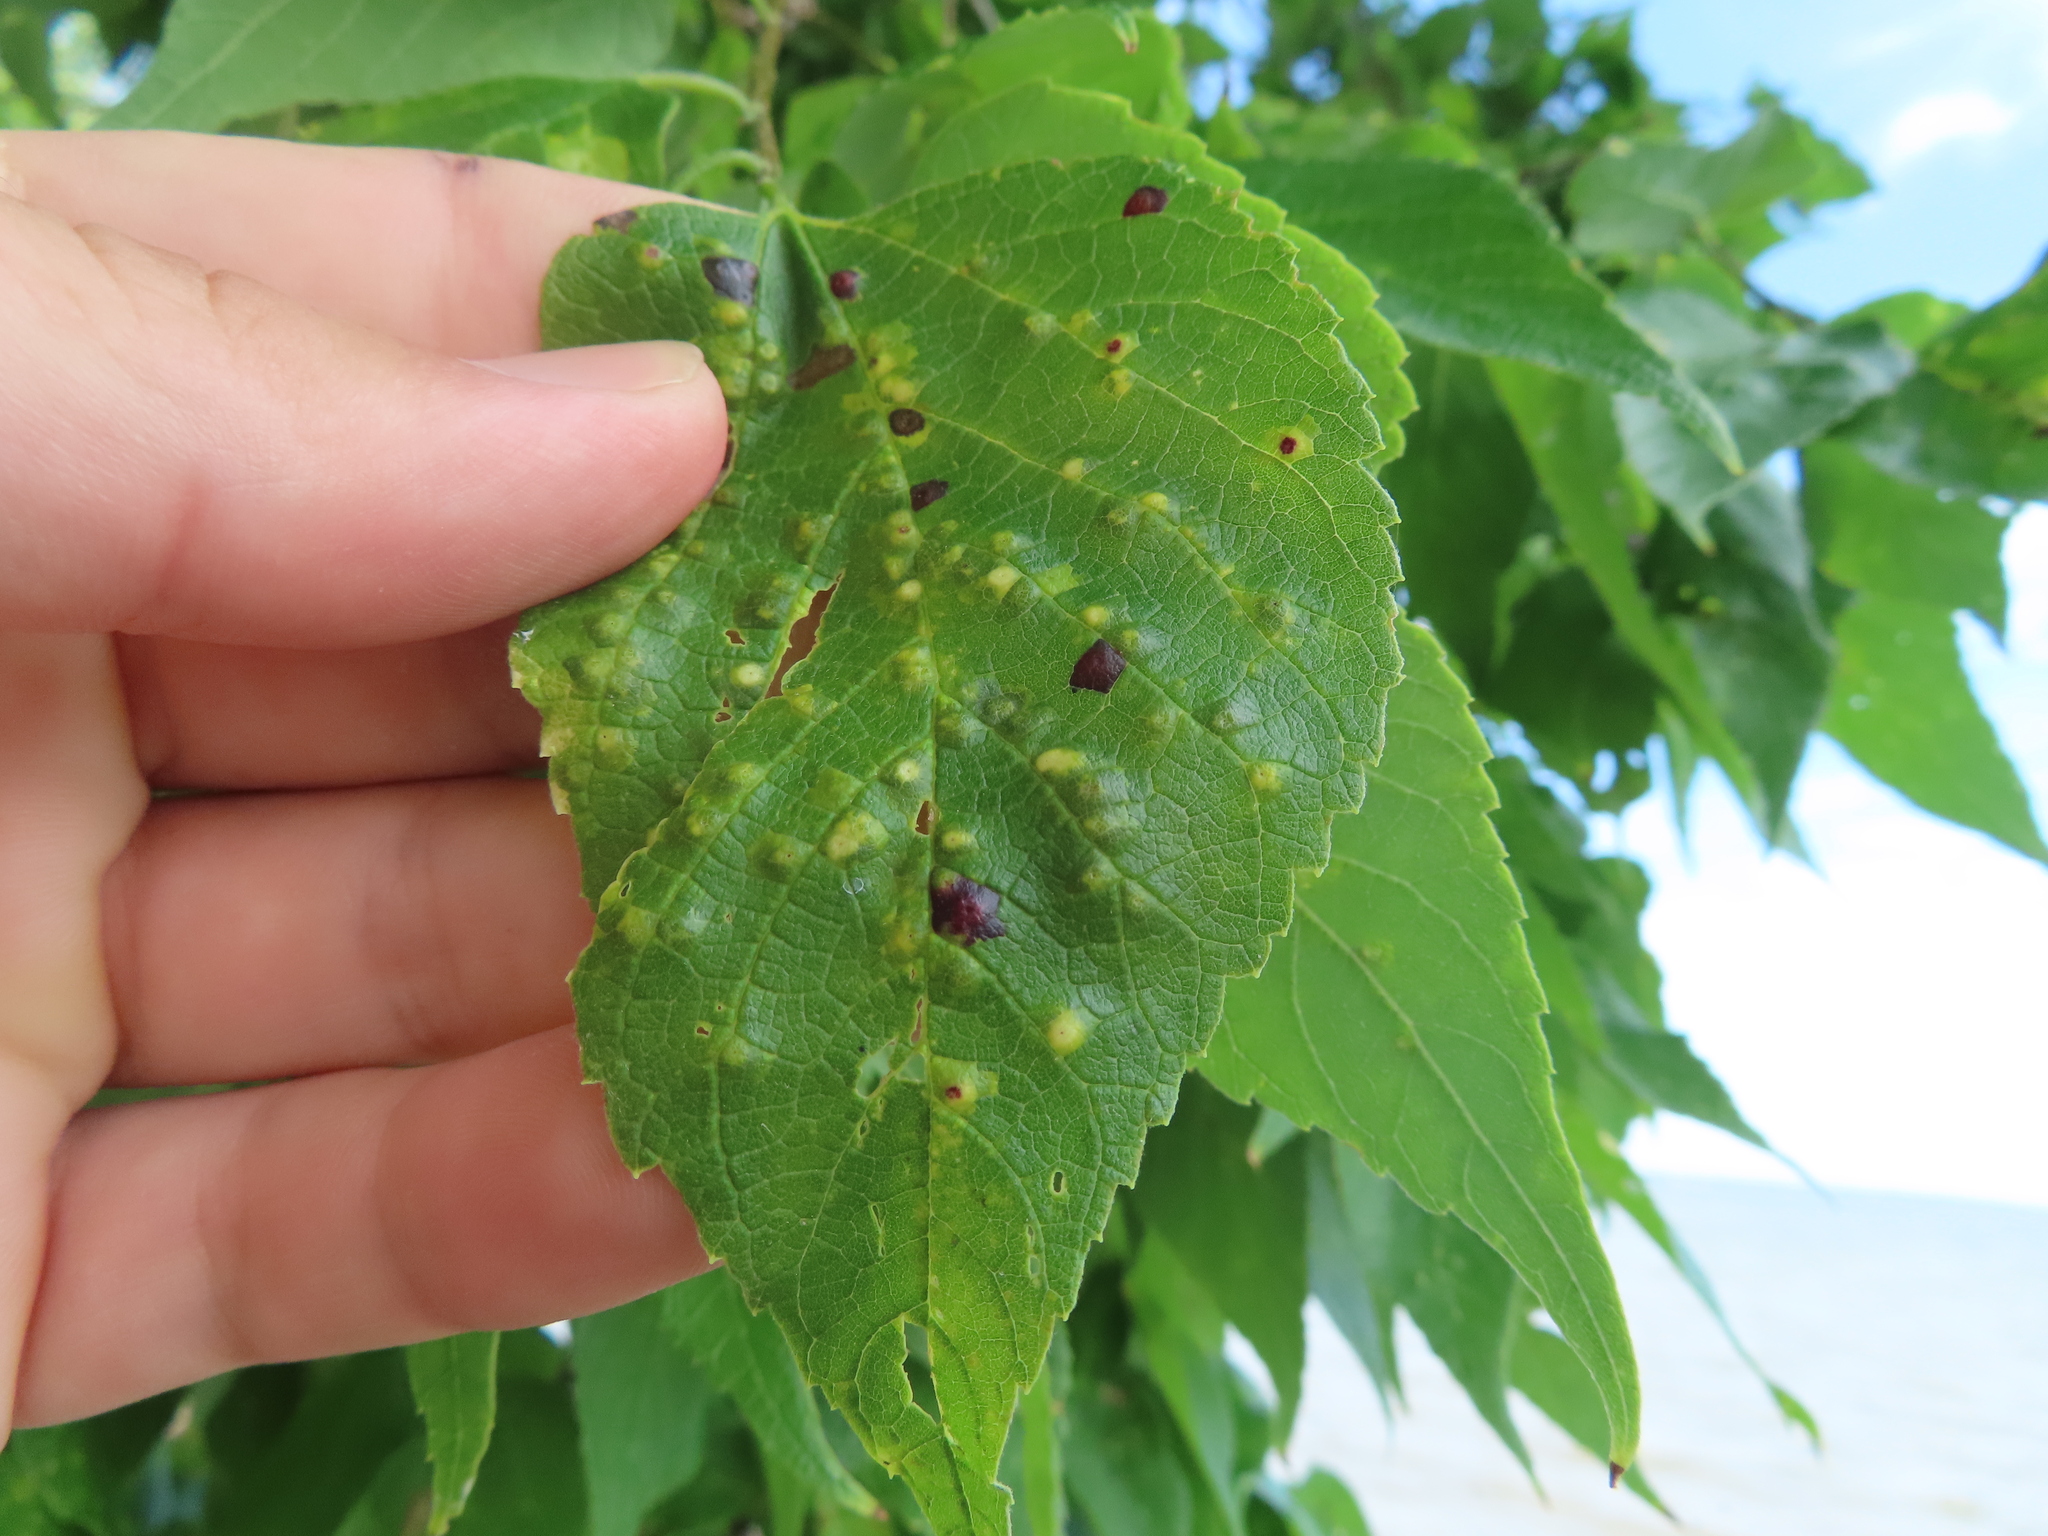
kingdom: Animalia
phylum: Arthropoda
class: Insecta
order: Hemiptera
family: Aphalaridae
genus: Pachypsylla
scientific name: Pachypsylla celtidisvesicula
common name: Hackberry blister gall psyllid
